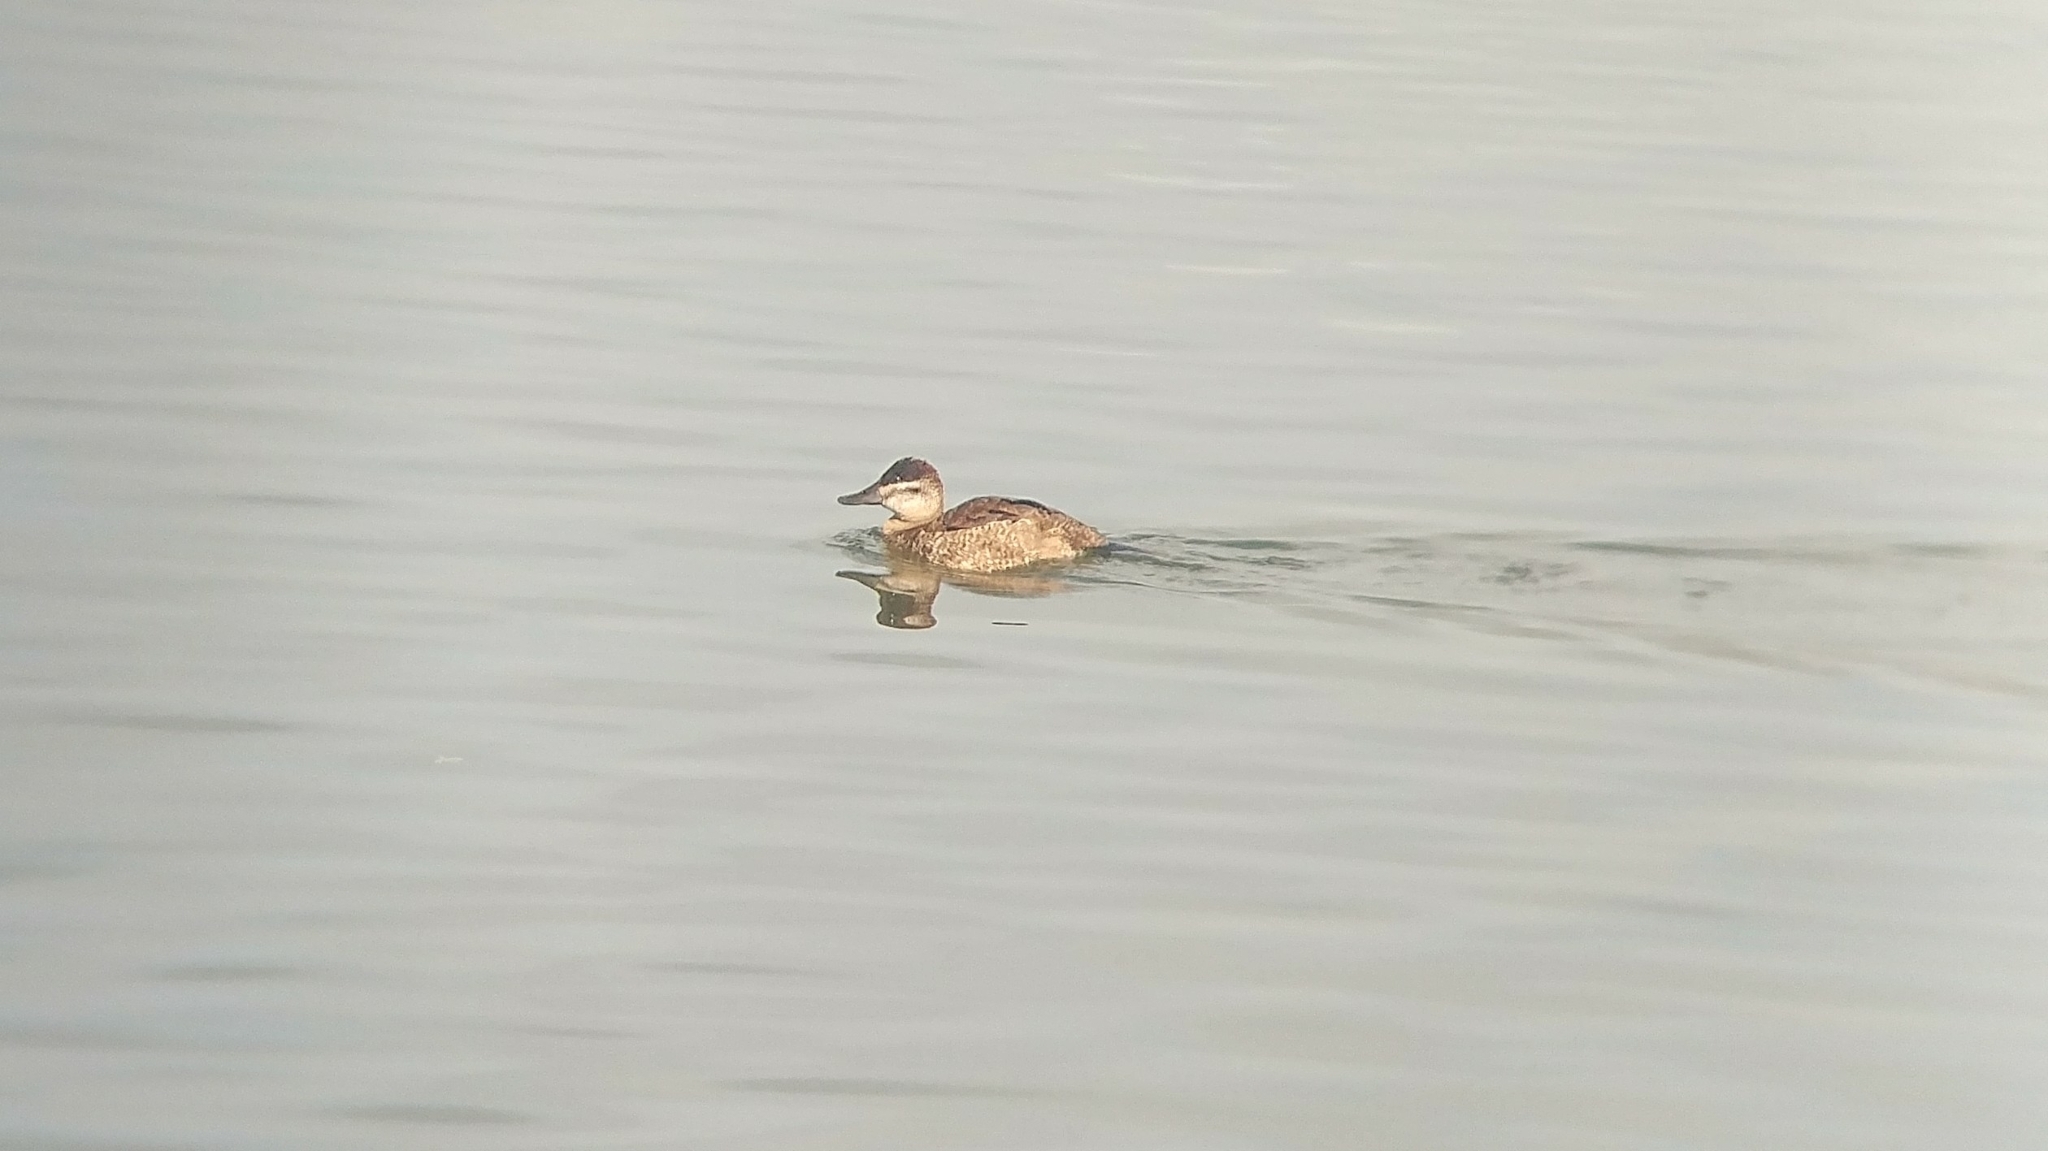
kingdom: Animalia
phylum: Chordata
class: Aves
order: Anseriformes
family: Anatidae
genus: Oxyura
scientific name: Oxyura jamaicensis
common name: Ruddy duck
